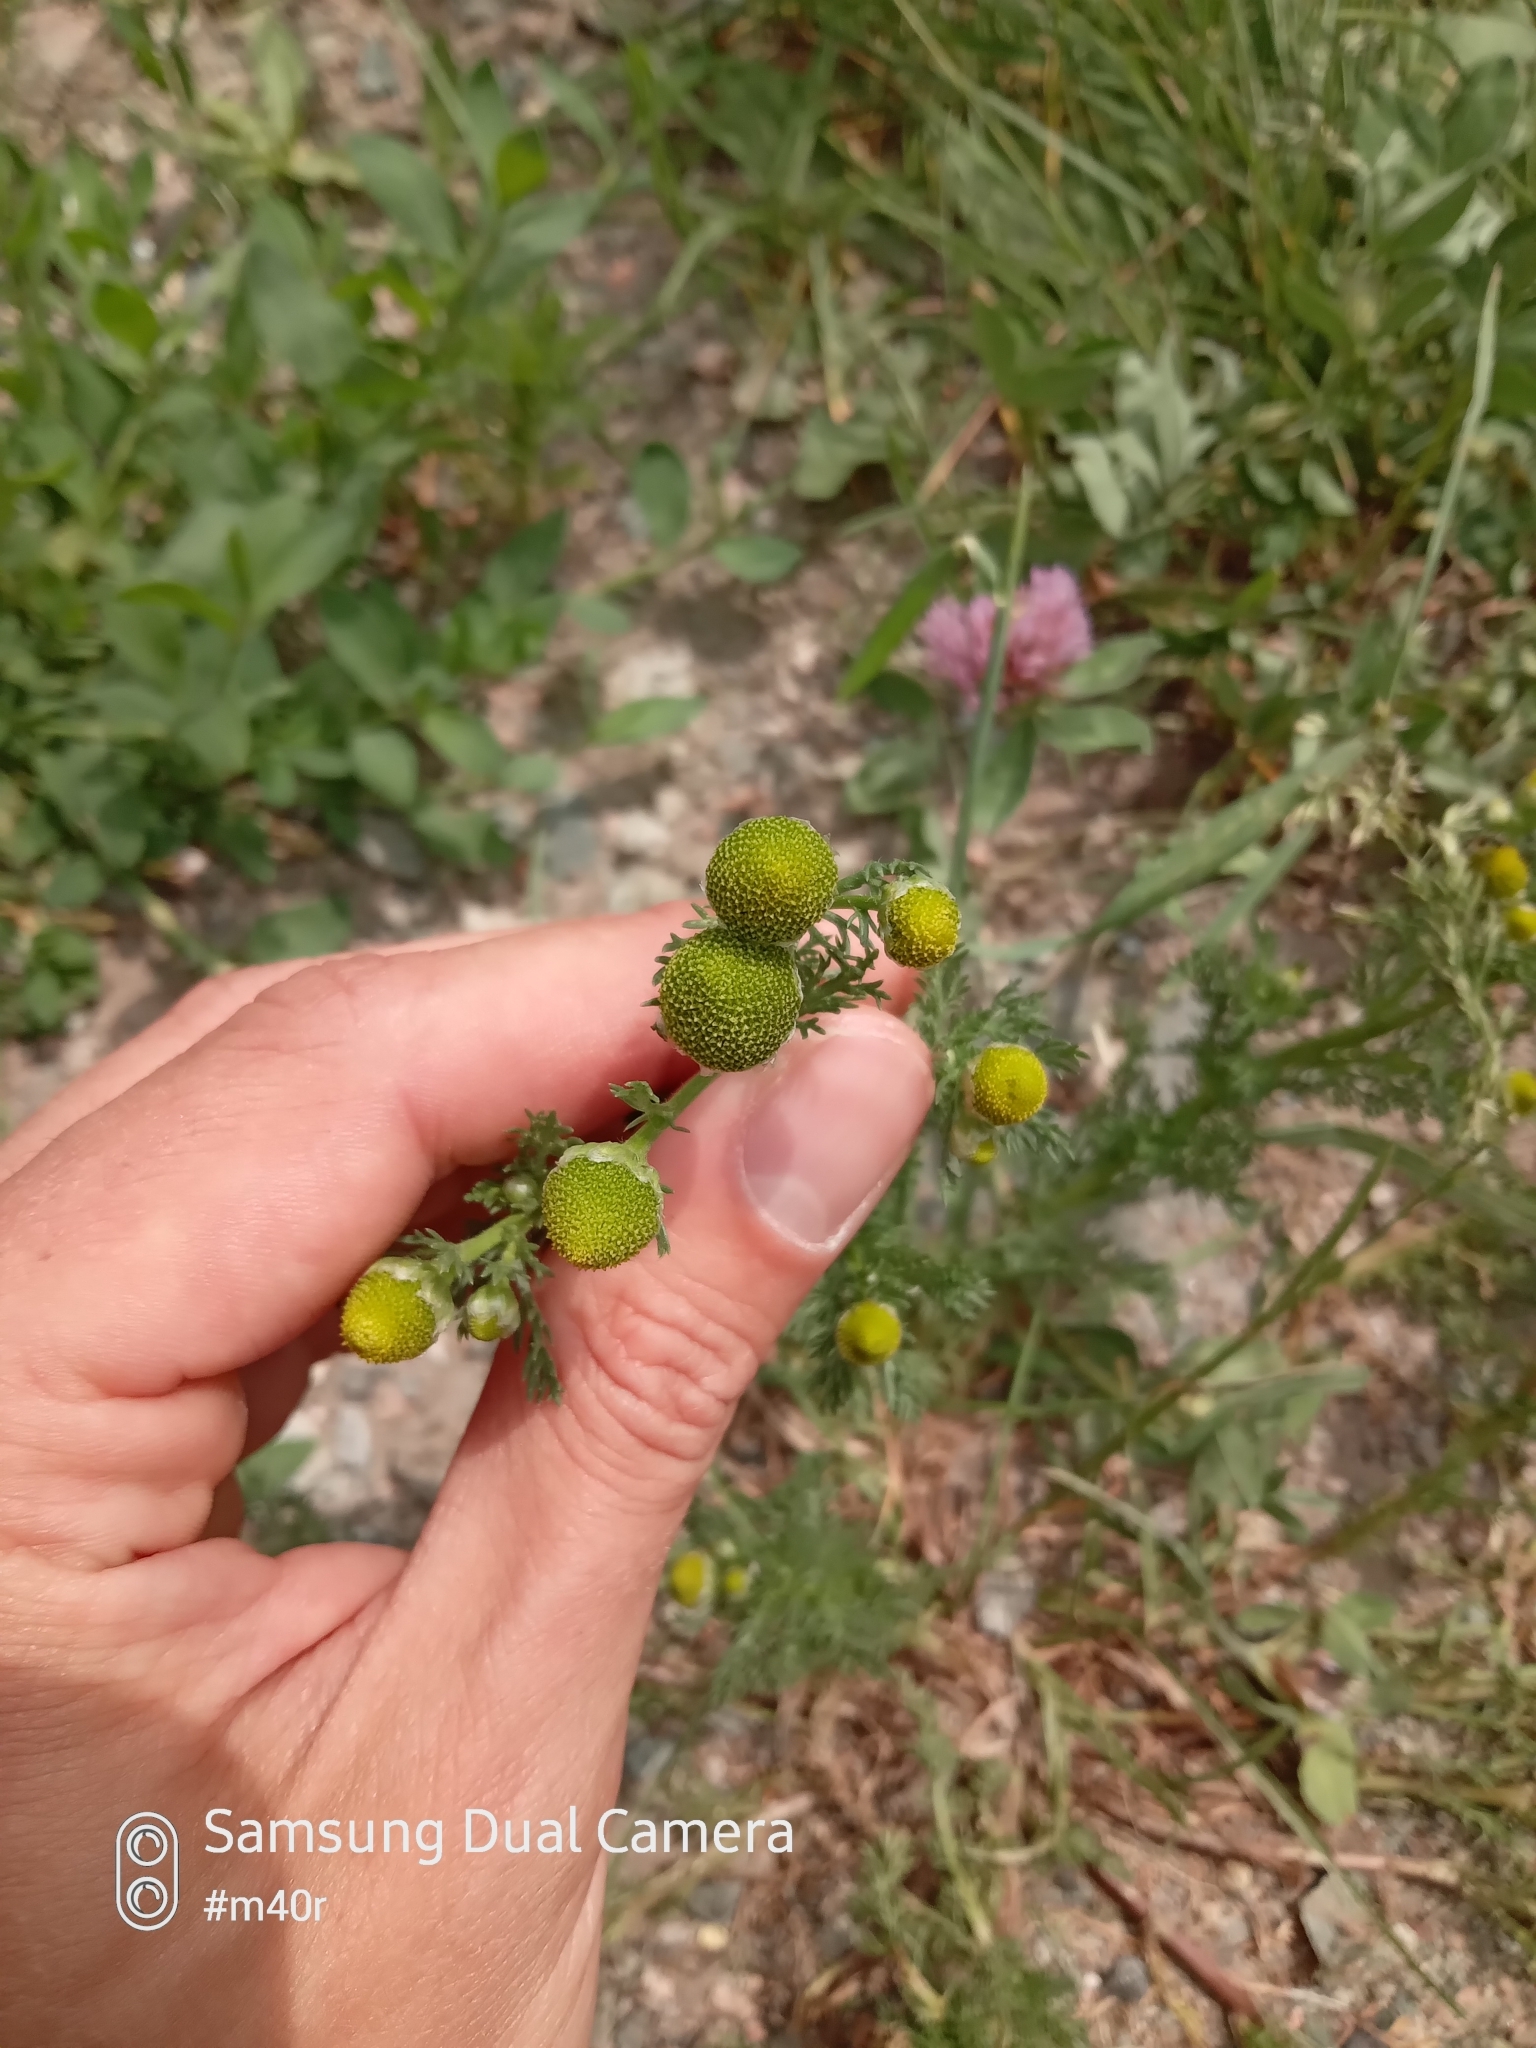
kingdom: Plantae
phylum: Tracheophyta
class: Magnoliopsida
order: Asterales
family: Asteraceae
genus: Matricaria
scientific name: Matricaria discoidea
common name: Disc mayweed
